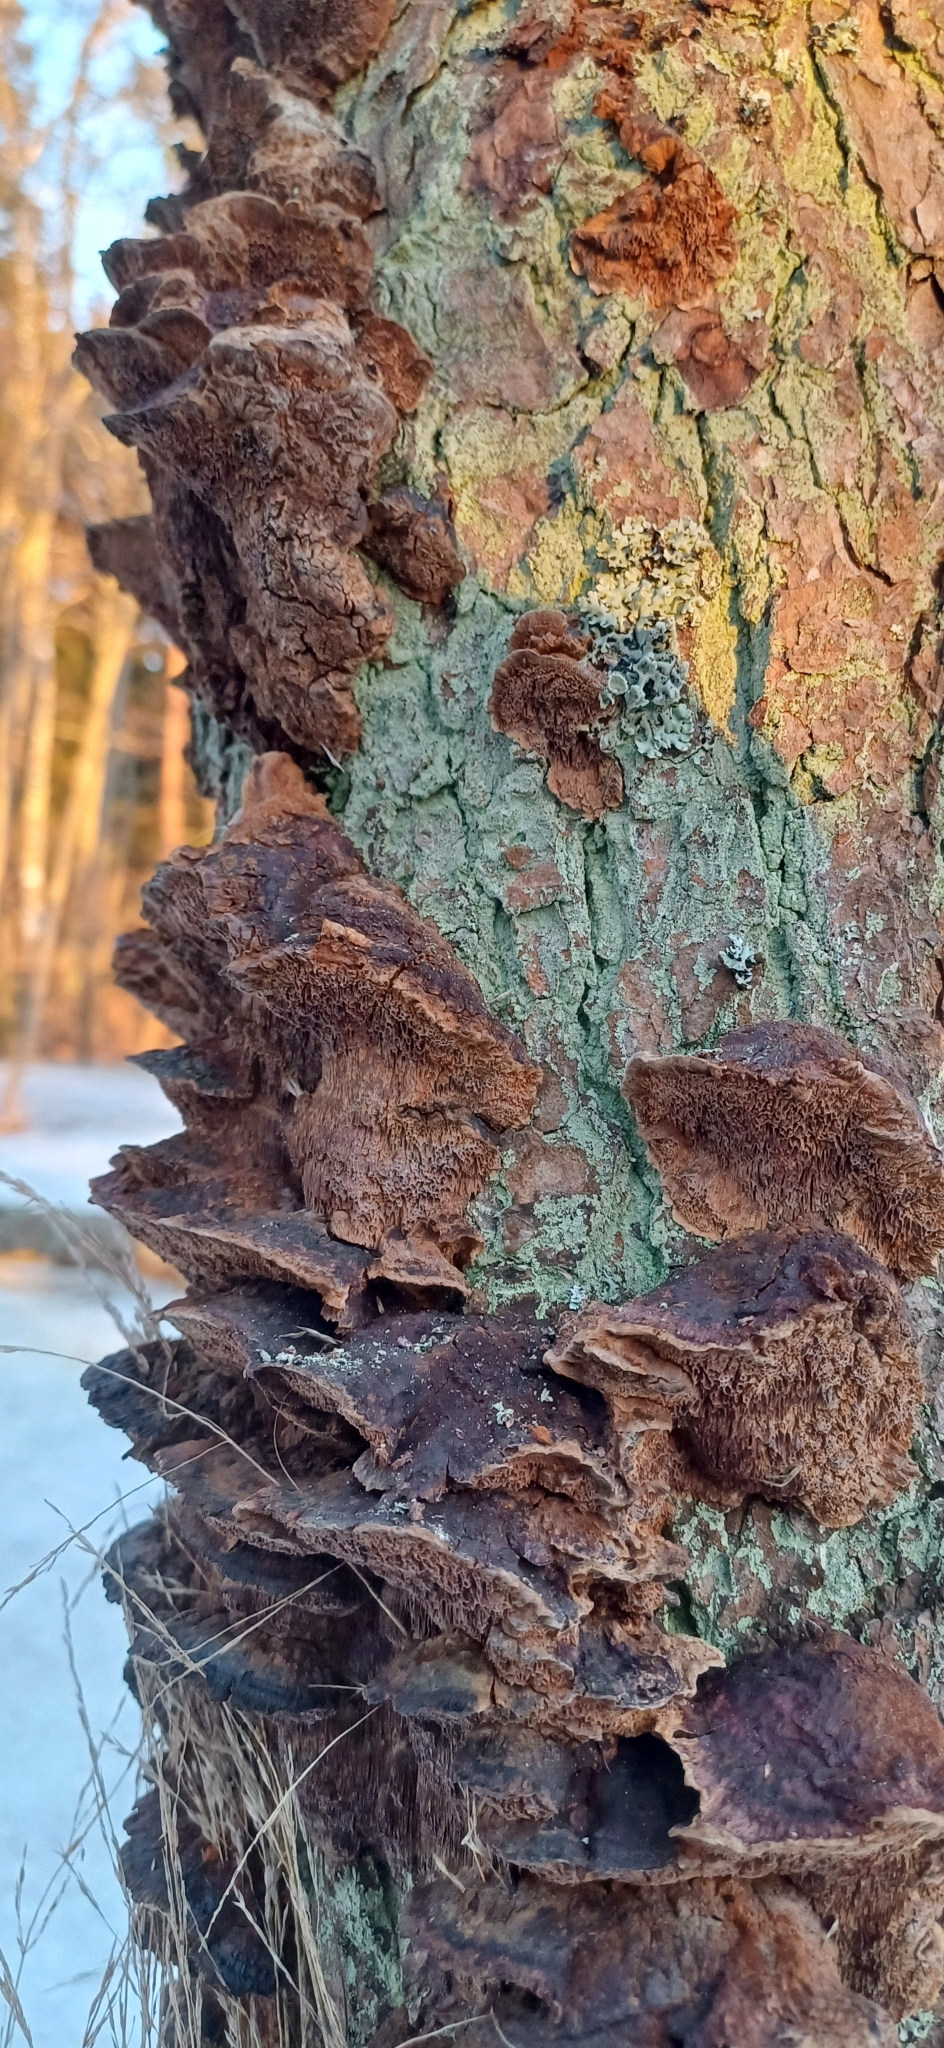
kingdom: Fungi
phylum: Basidiomycota
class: Agaricomycetes
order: Hymenochaetales
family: Hymenochaetaceae
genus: Xanthoporia
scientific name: Xanthoporia radiata
